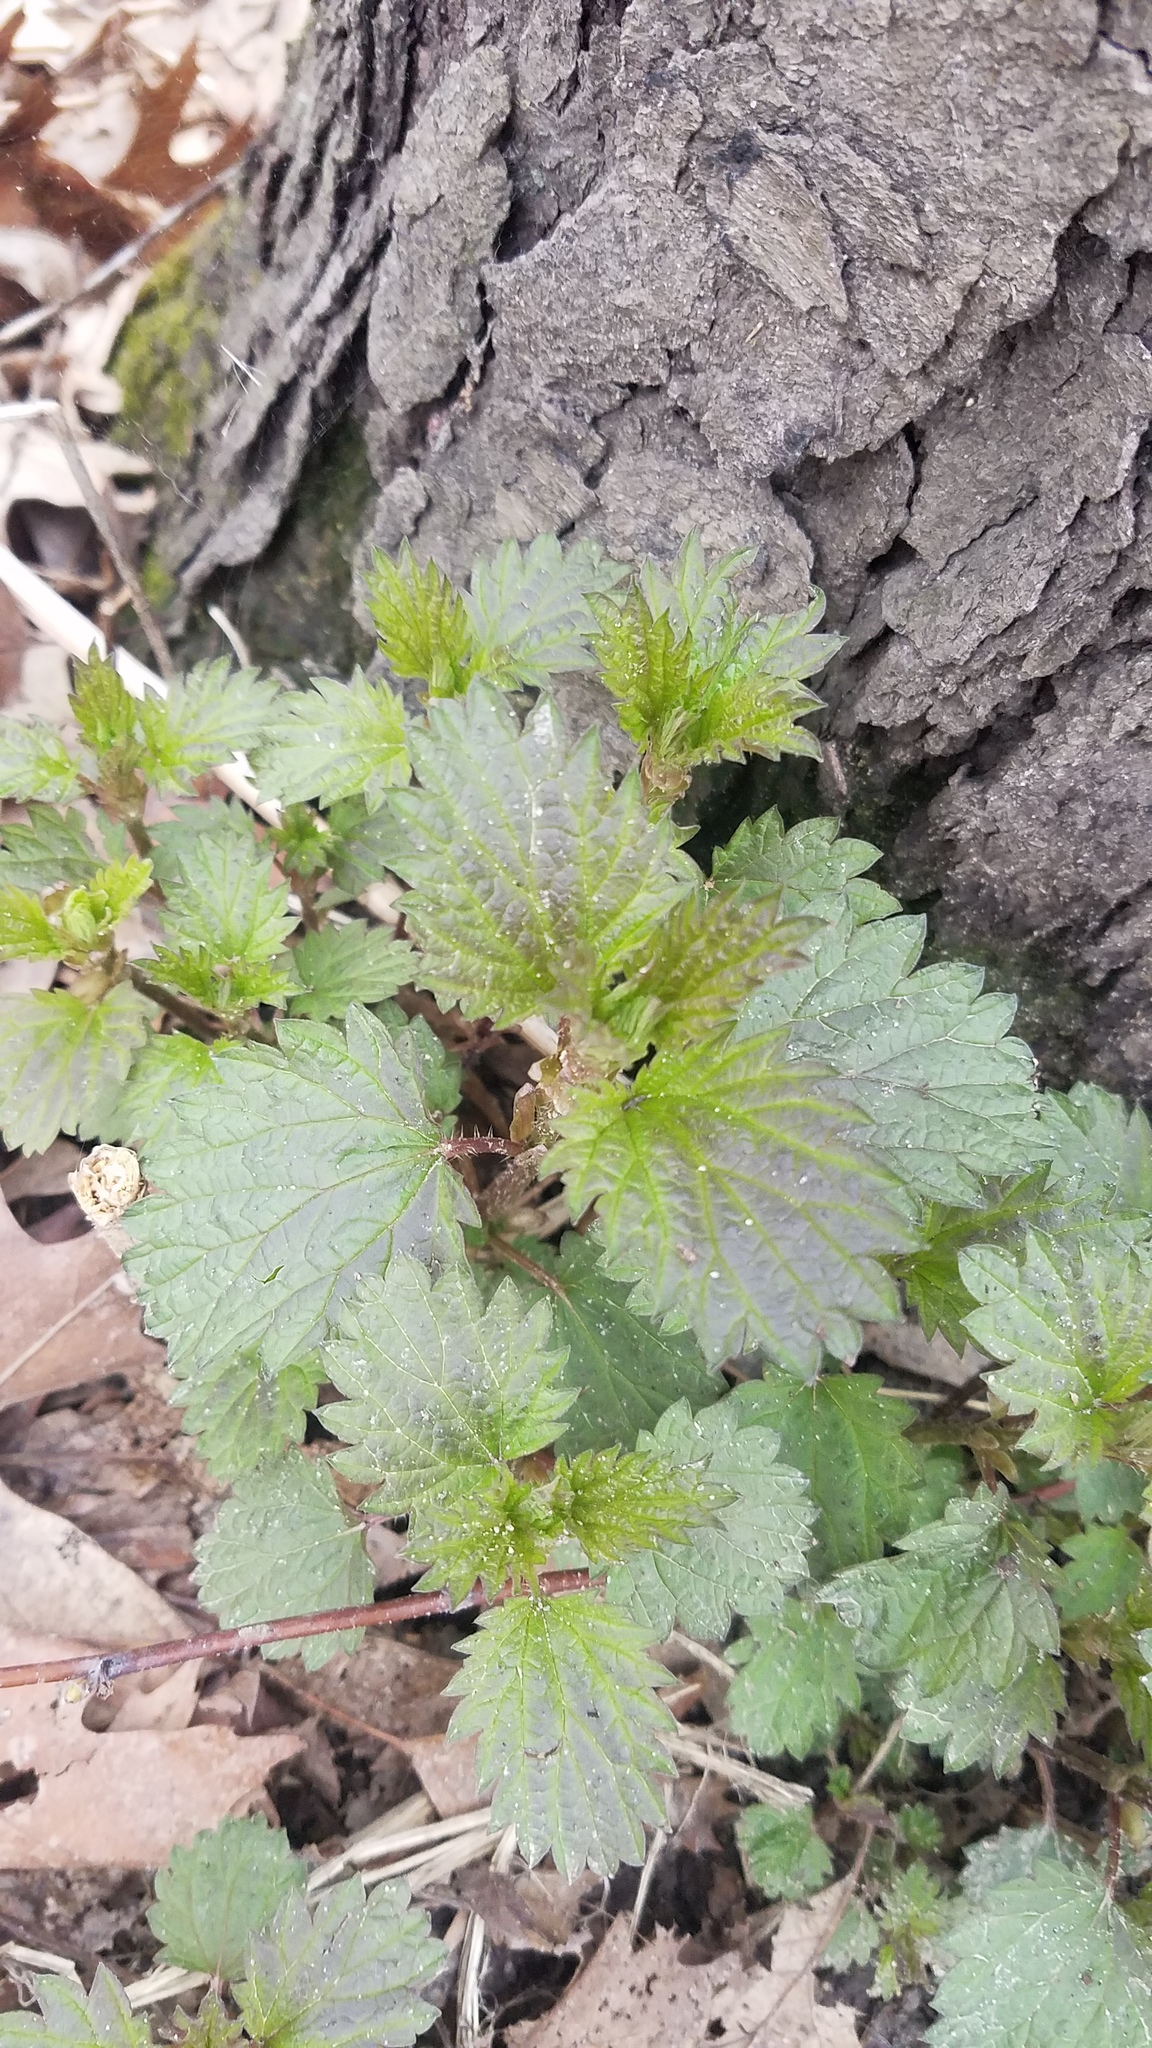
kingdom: Plantae
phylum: Tracheophyta
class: Magnoliopsida
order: Rosales
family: Urticaceae
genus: Urtica
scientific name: Urtica gracilis
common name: Slender stinging nettle
